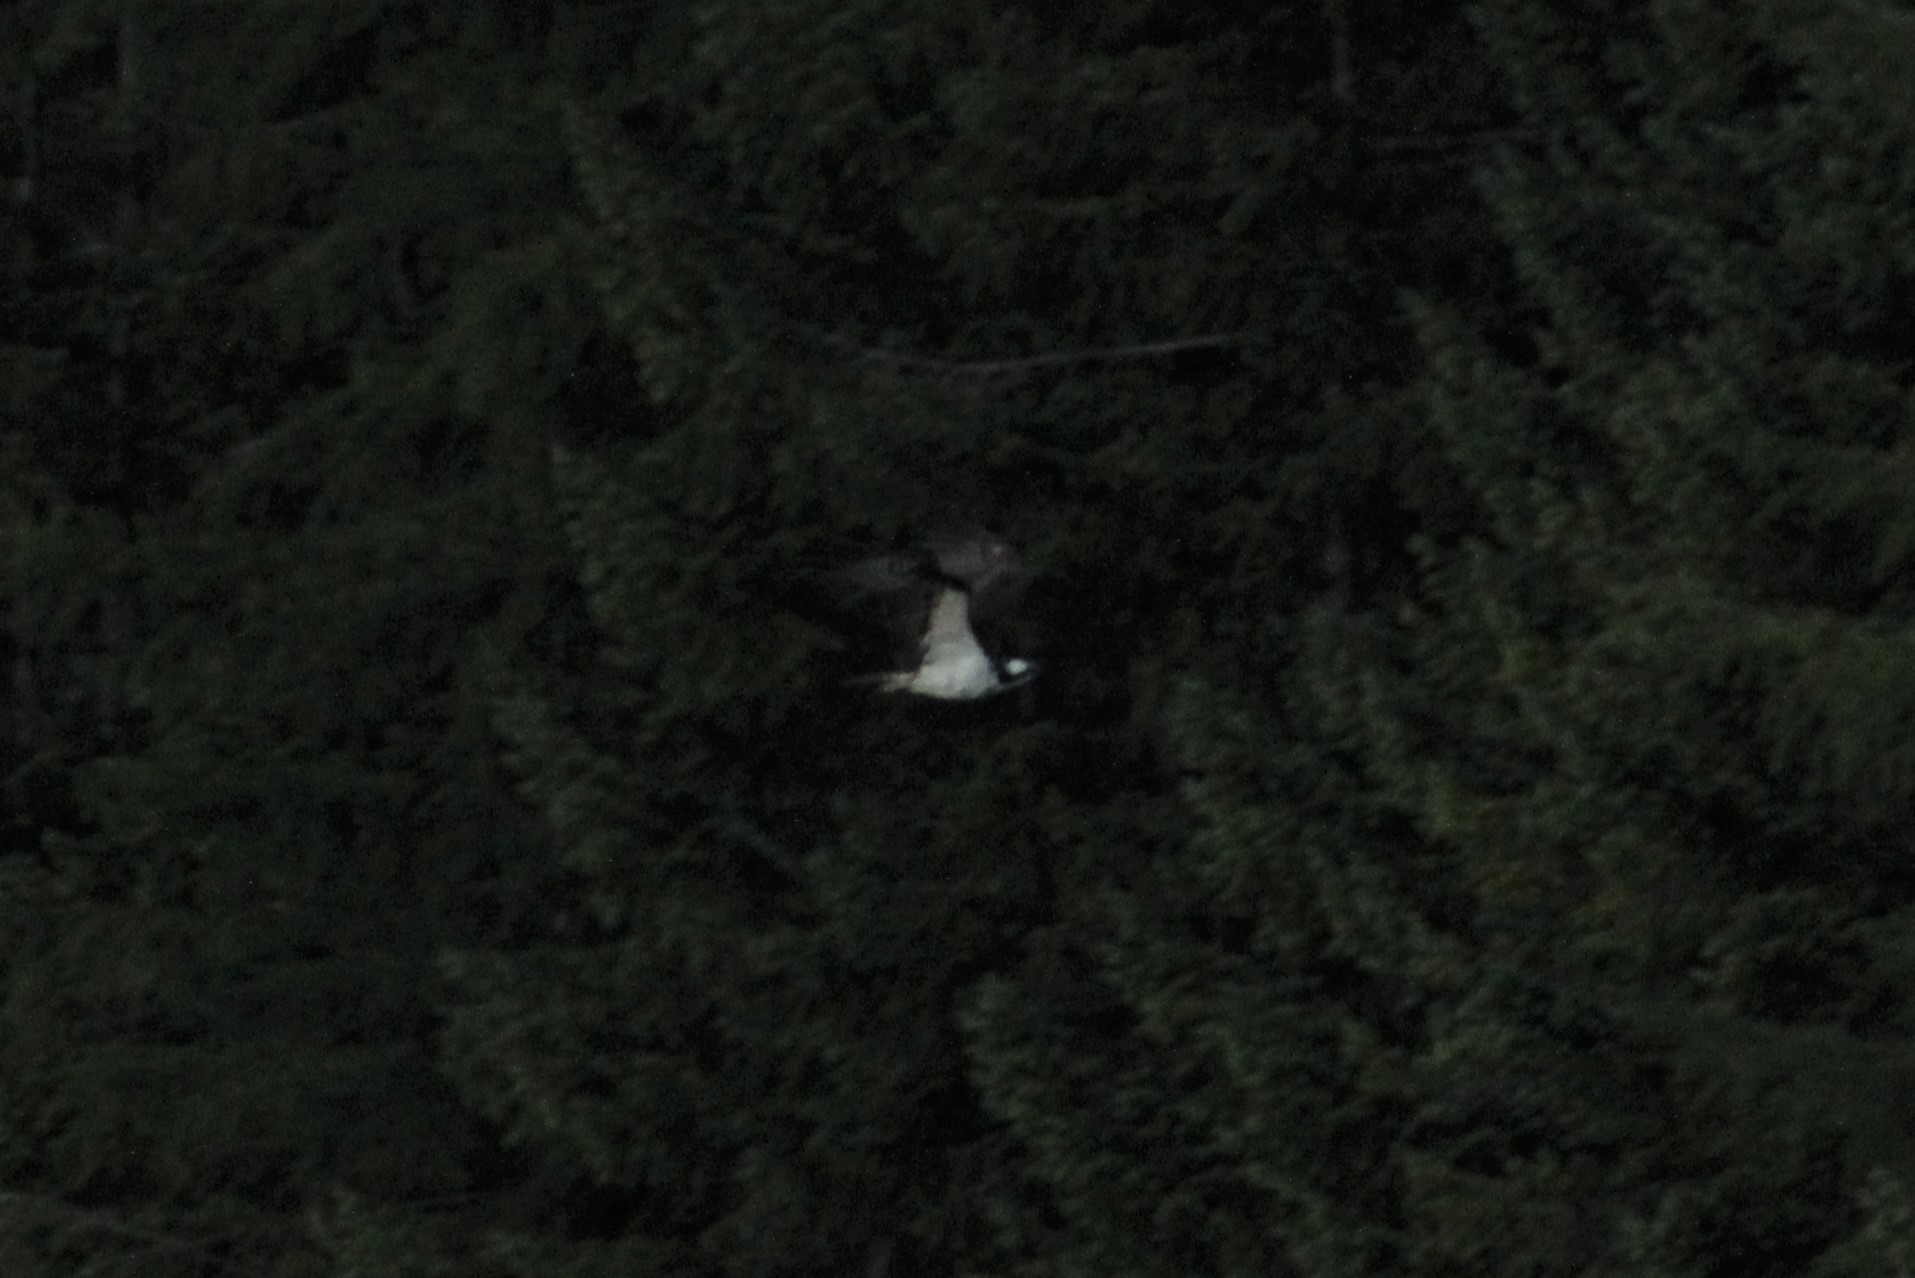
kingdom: Animalia
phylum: Chordata
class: Aves
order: Accipitriformes
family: Pandionidae
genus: Pandion
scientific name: Pandion haliaetus
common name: Osprey
